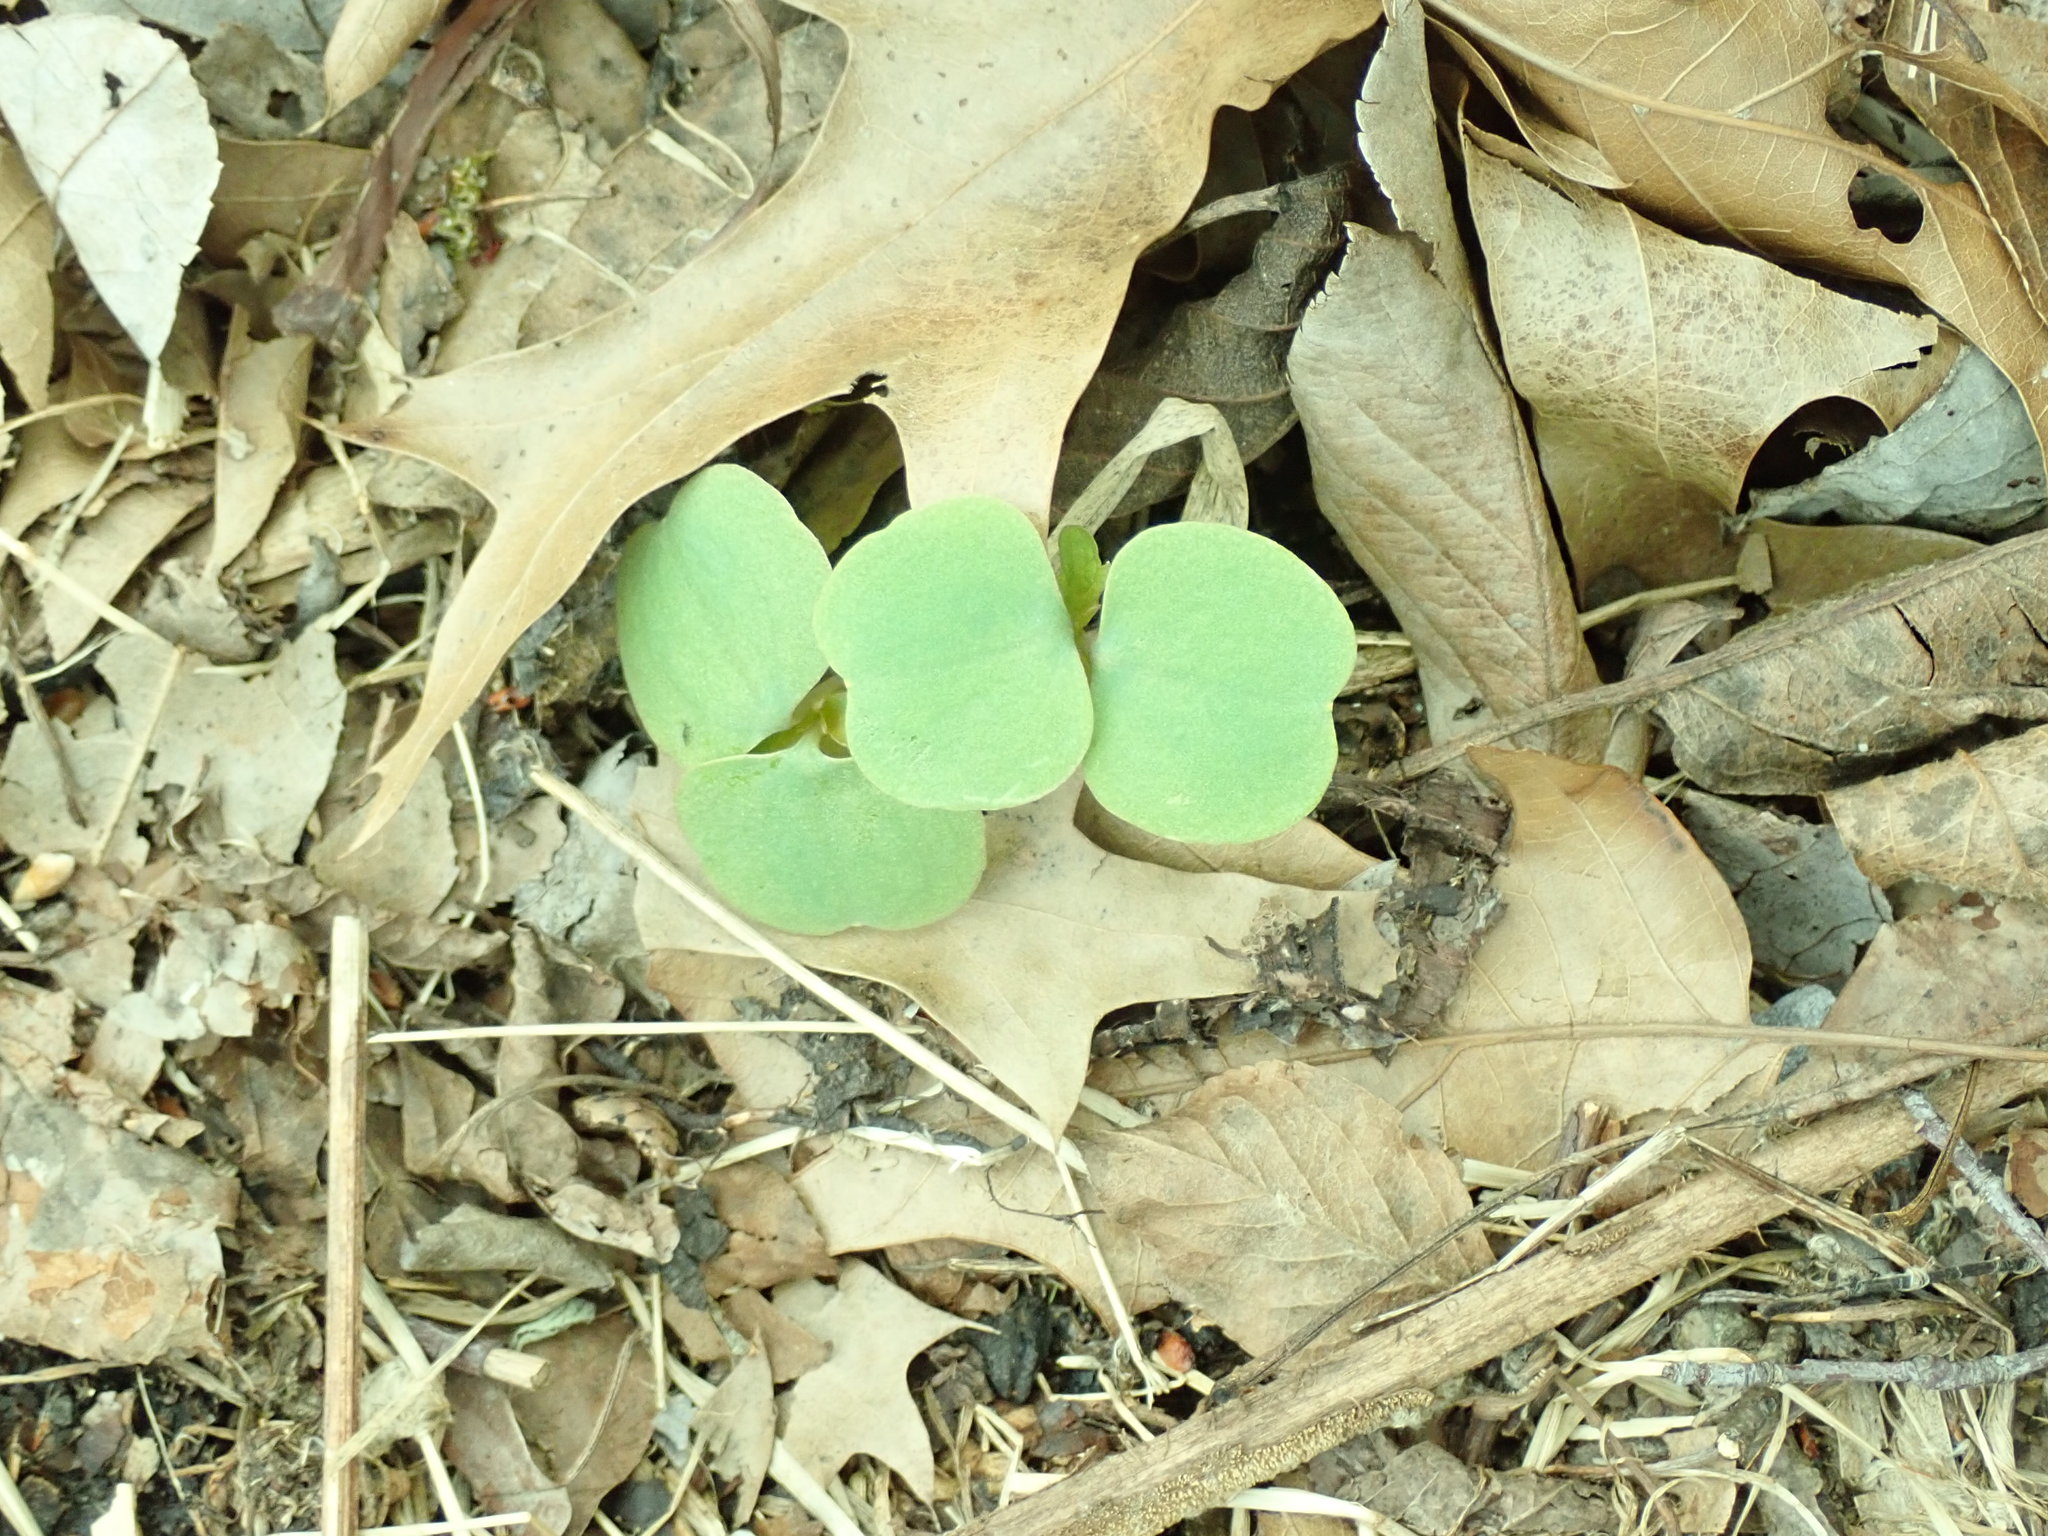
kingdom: Plantae
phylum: Tracheophyta
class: Magnoliopsida
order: Ericales
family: Balsaminaceae
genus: Impatiens
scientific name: Impatiens capensis
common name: Orange balsam
